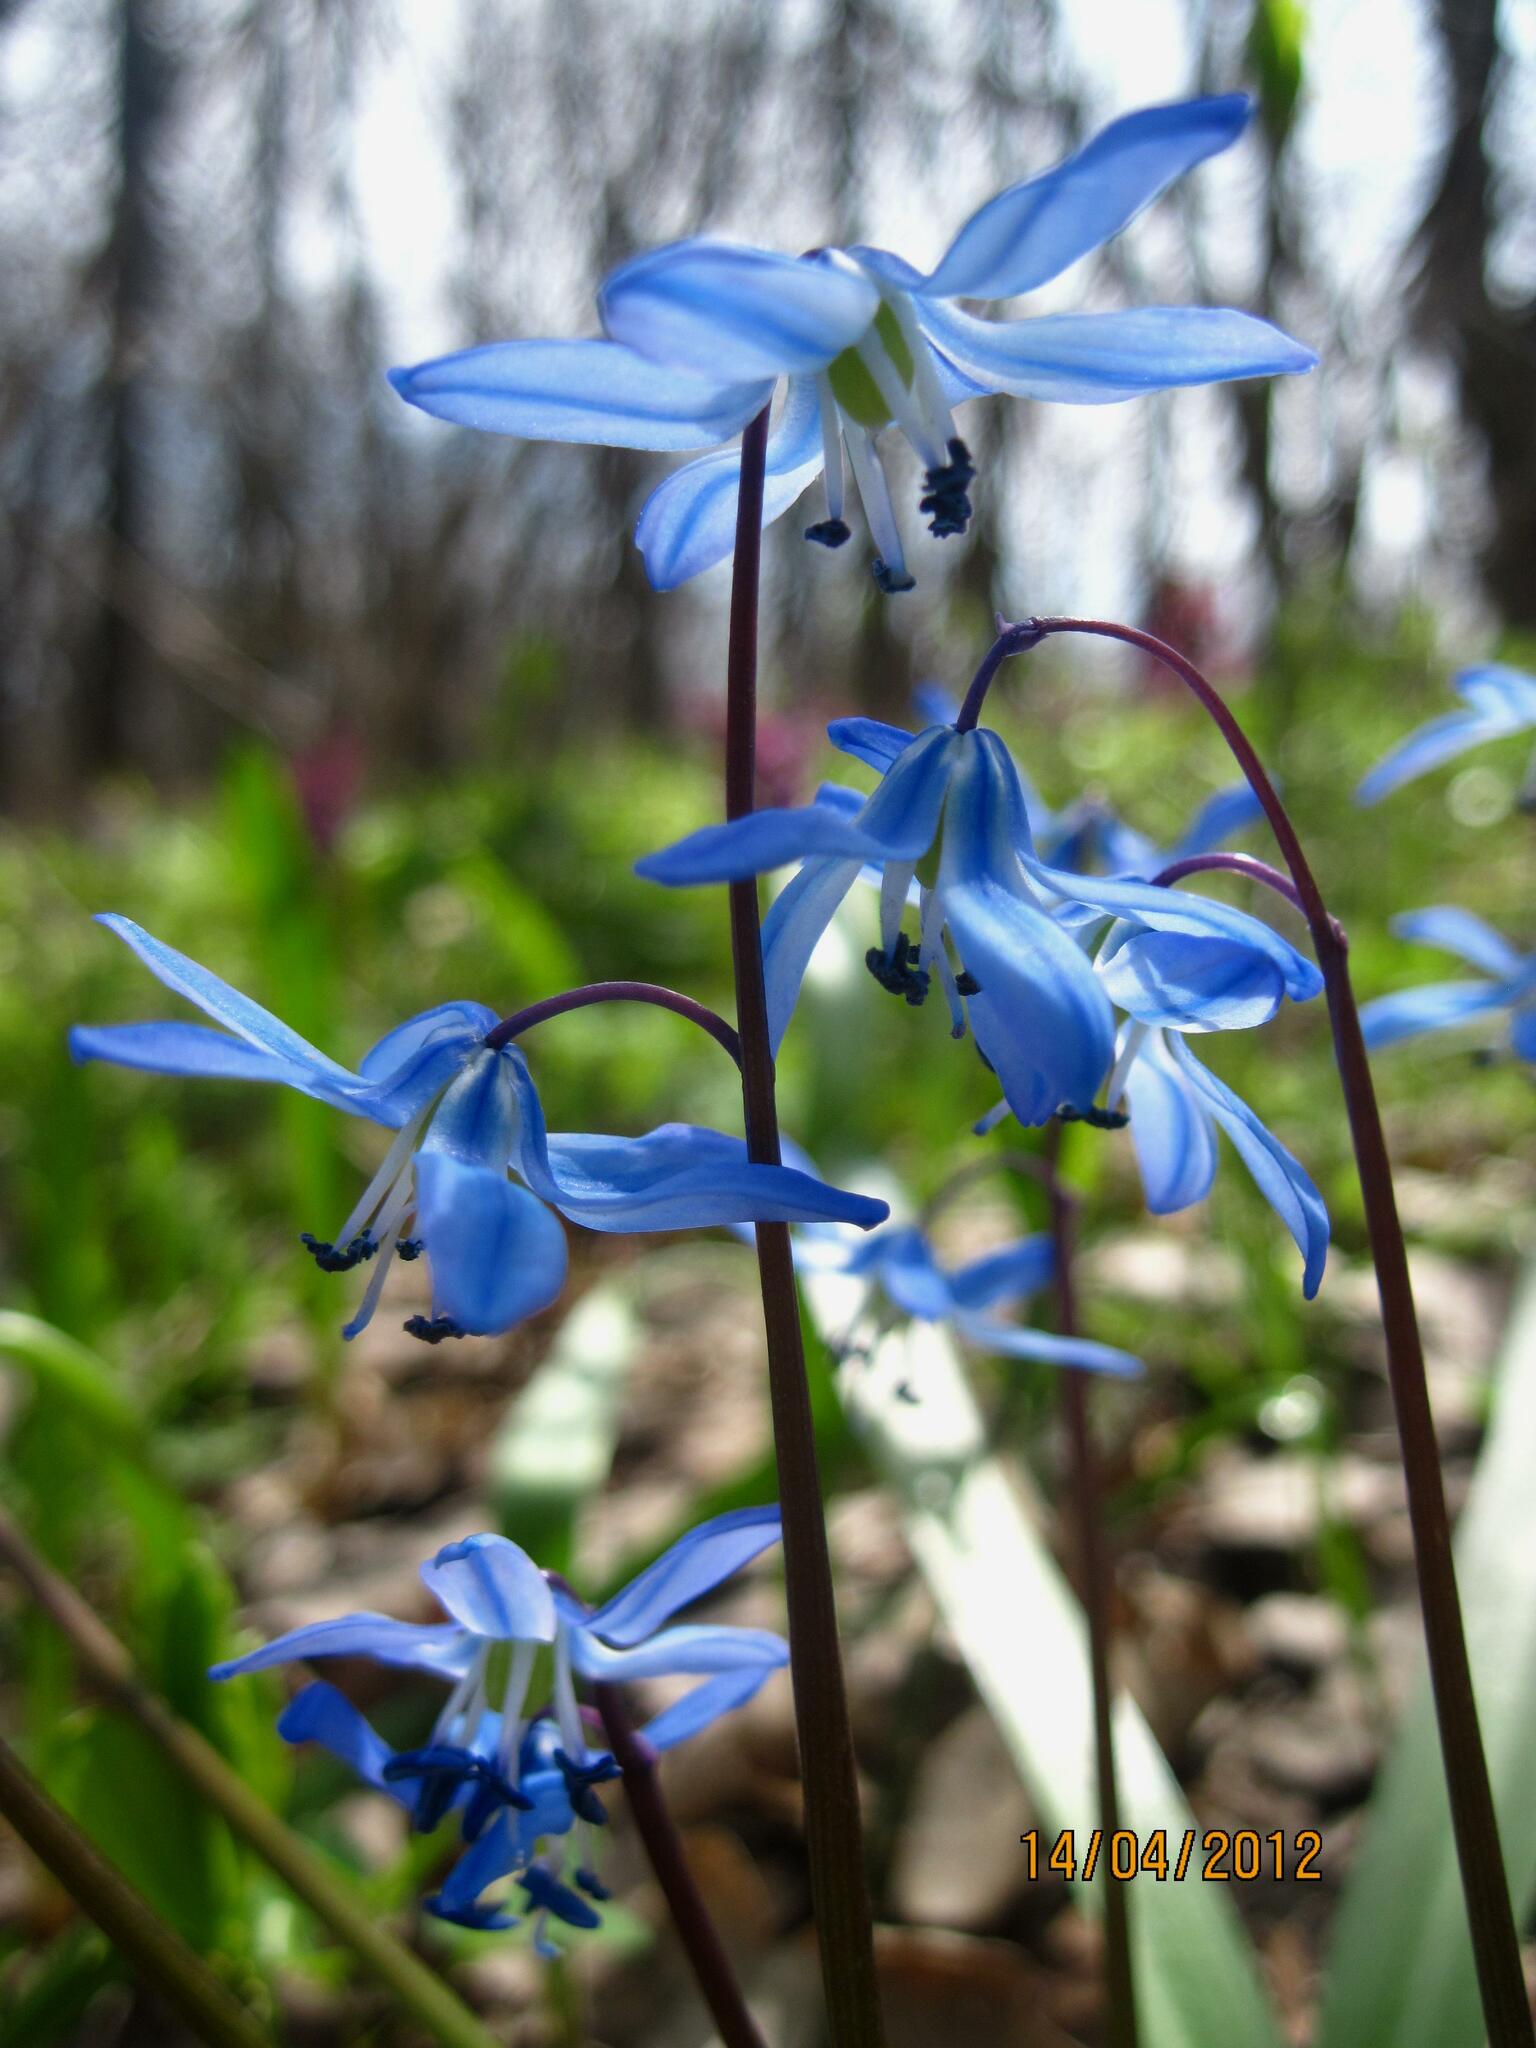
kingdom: Plantae
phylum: Tracheophyta
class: Liliopsida
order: Asparagales
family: Asparagaceae
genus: Scilla
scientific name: Scilla siberica
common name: Siberian squill
